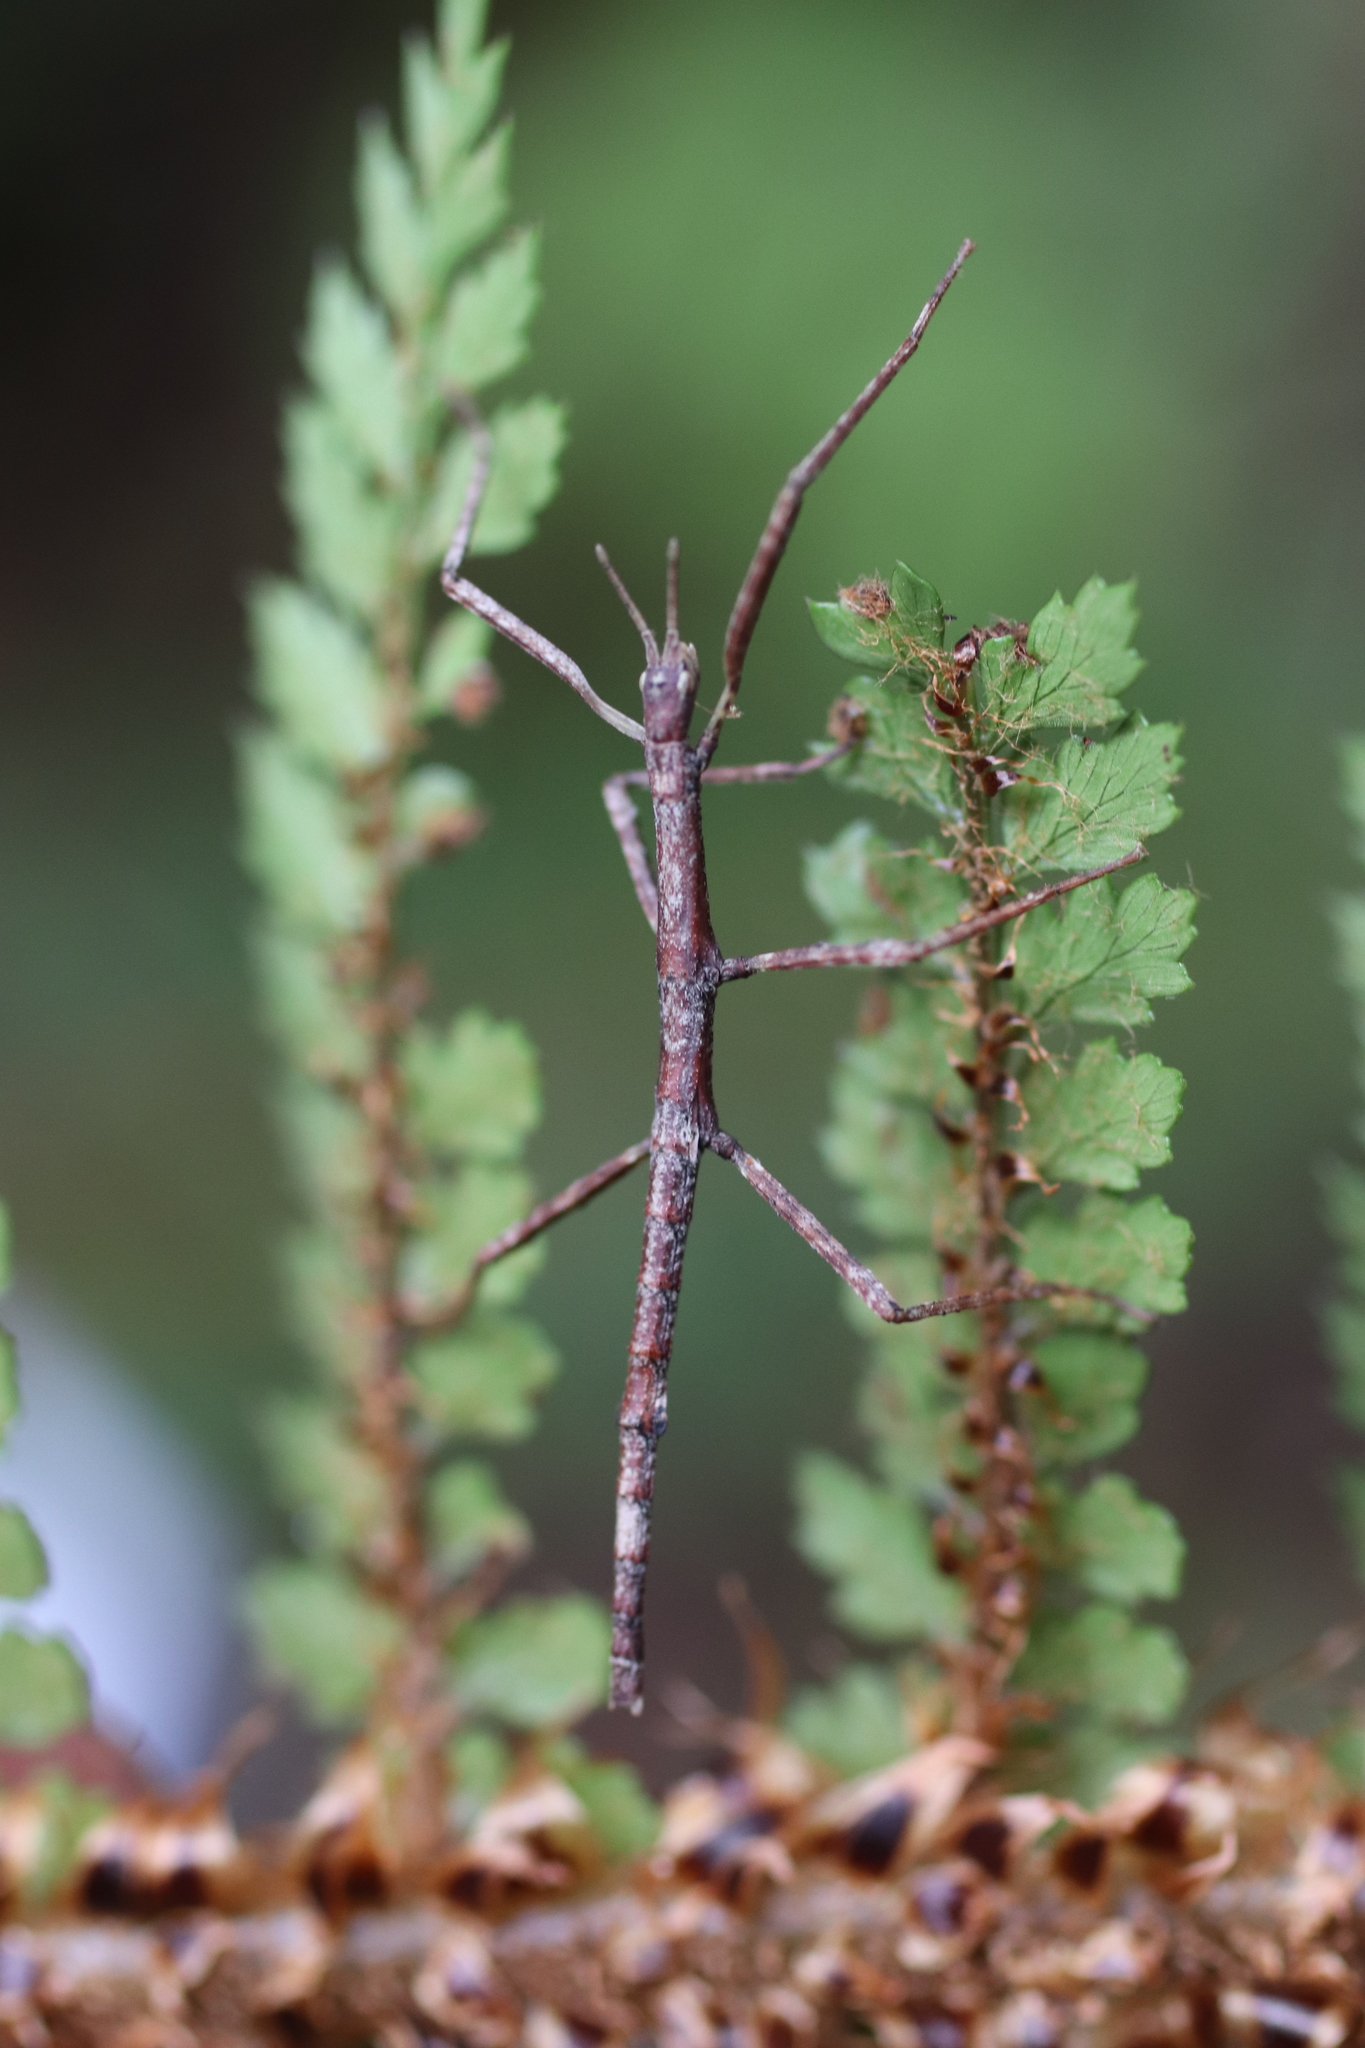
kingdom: Animalia
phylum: Arthropoda
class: Insecta
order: Phasmida
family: Phasmatidae
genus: Niveaphasma
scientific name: Niveaphasma annulatum
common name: Hutton's stick insect
